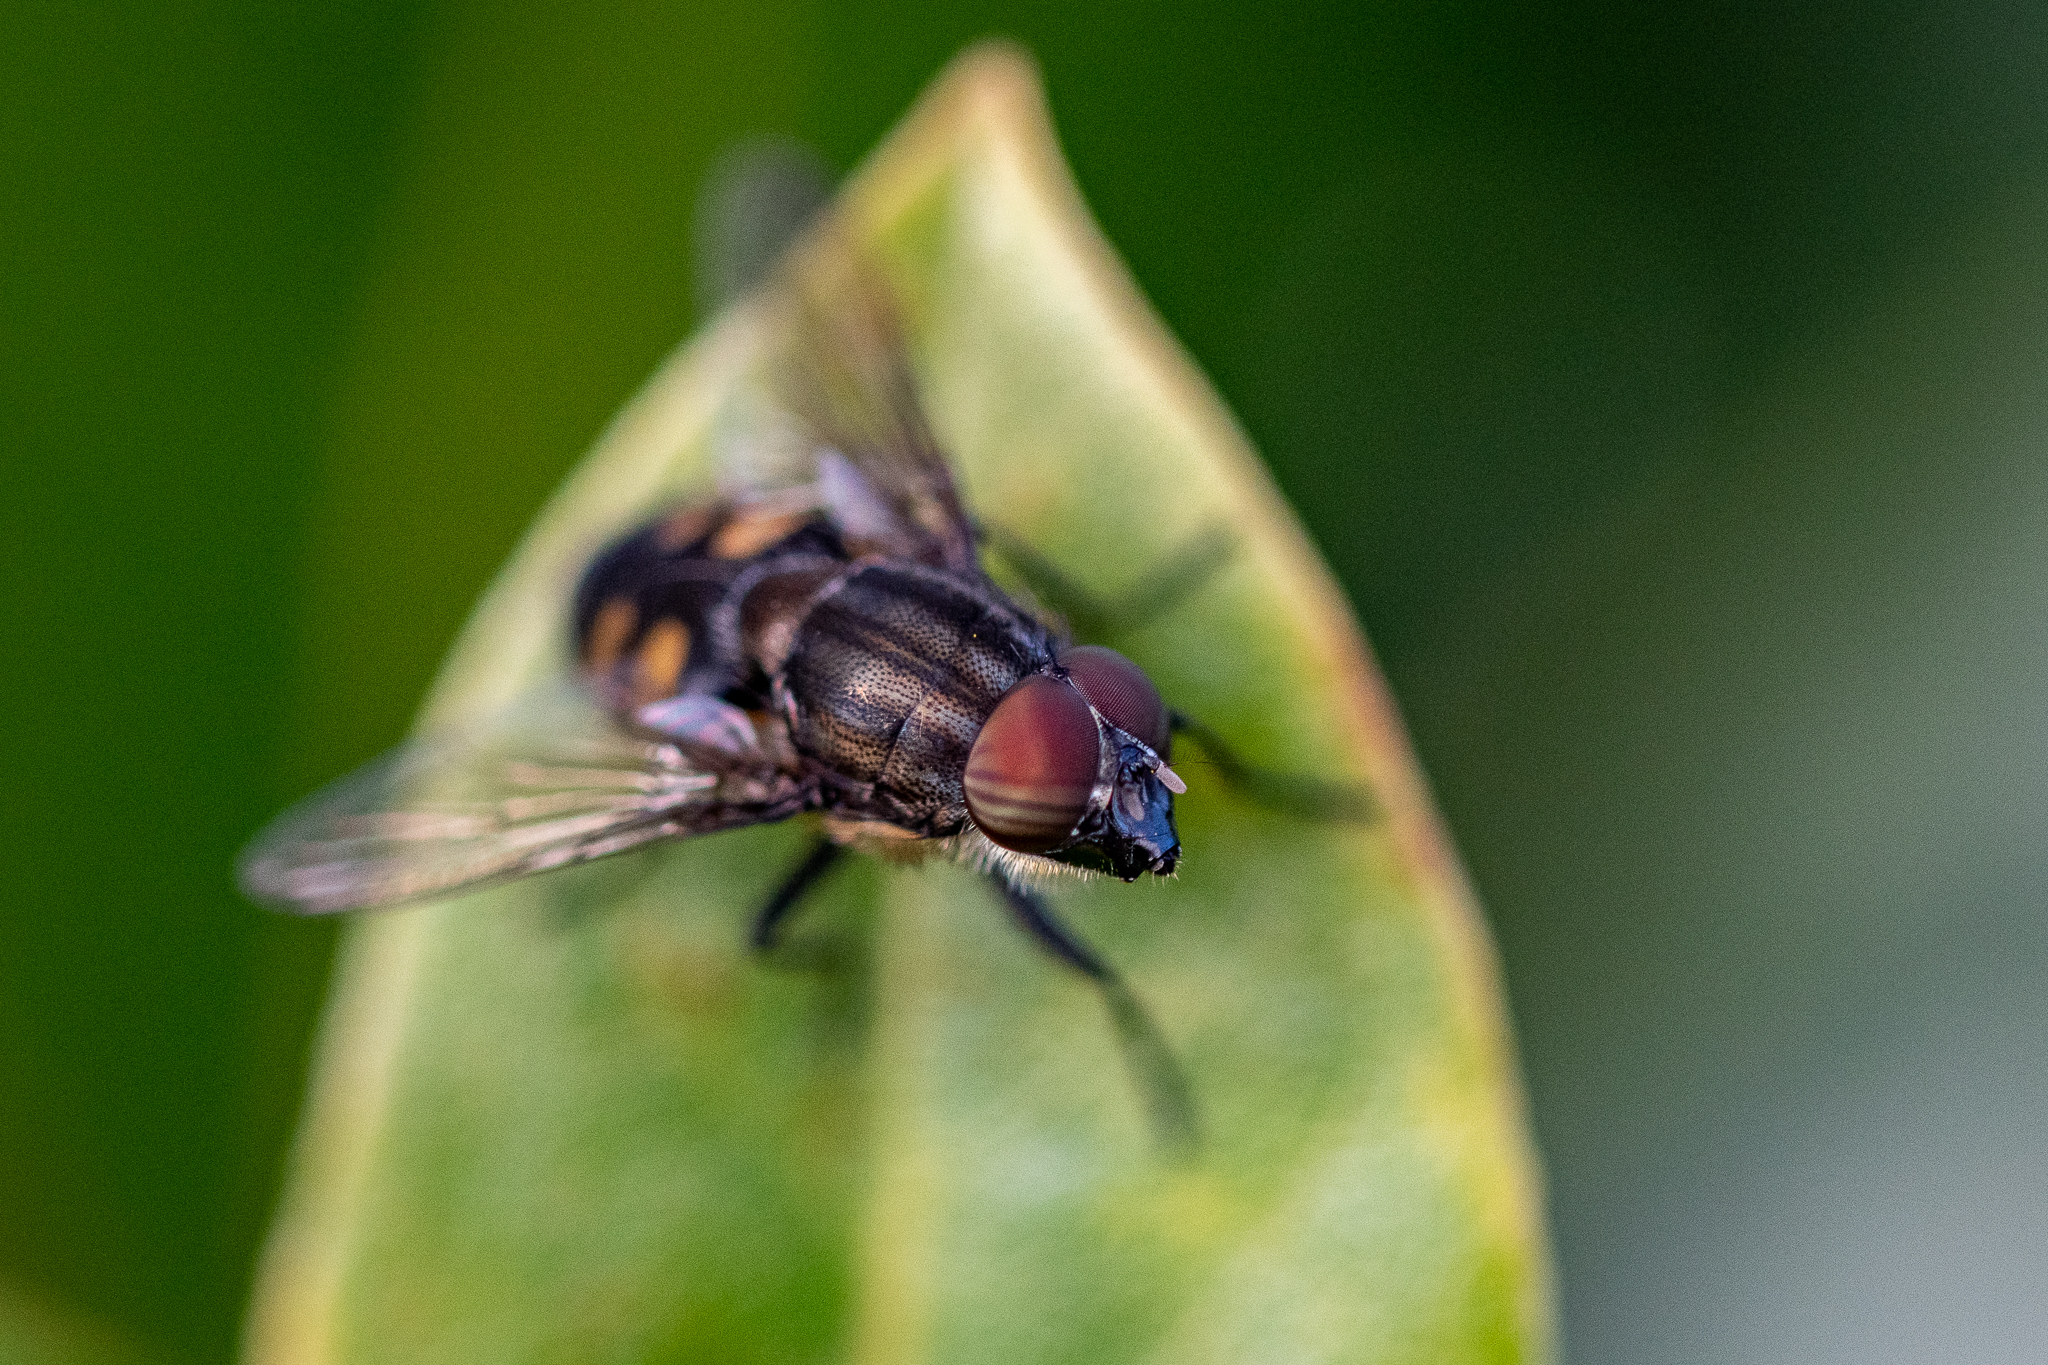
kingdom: Animalia
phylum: Arthropoda
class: Insecta
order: Diptera
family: Calliphoridae
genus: Stomorhina
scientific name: Stomorhina lunata
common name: Locust blowfly
